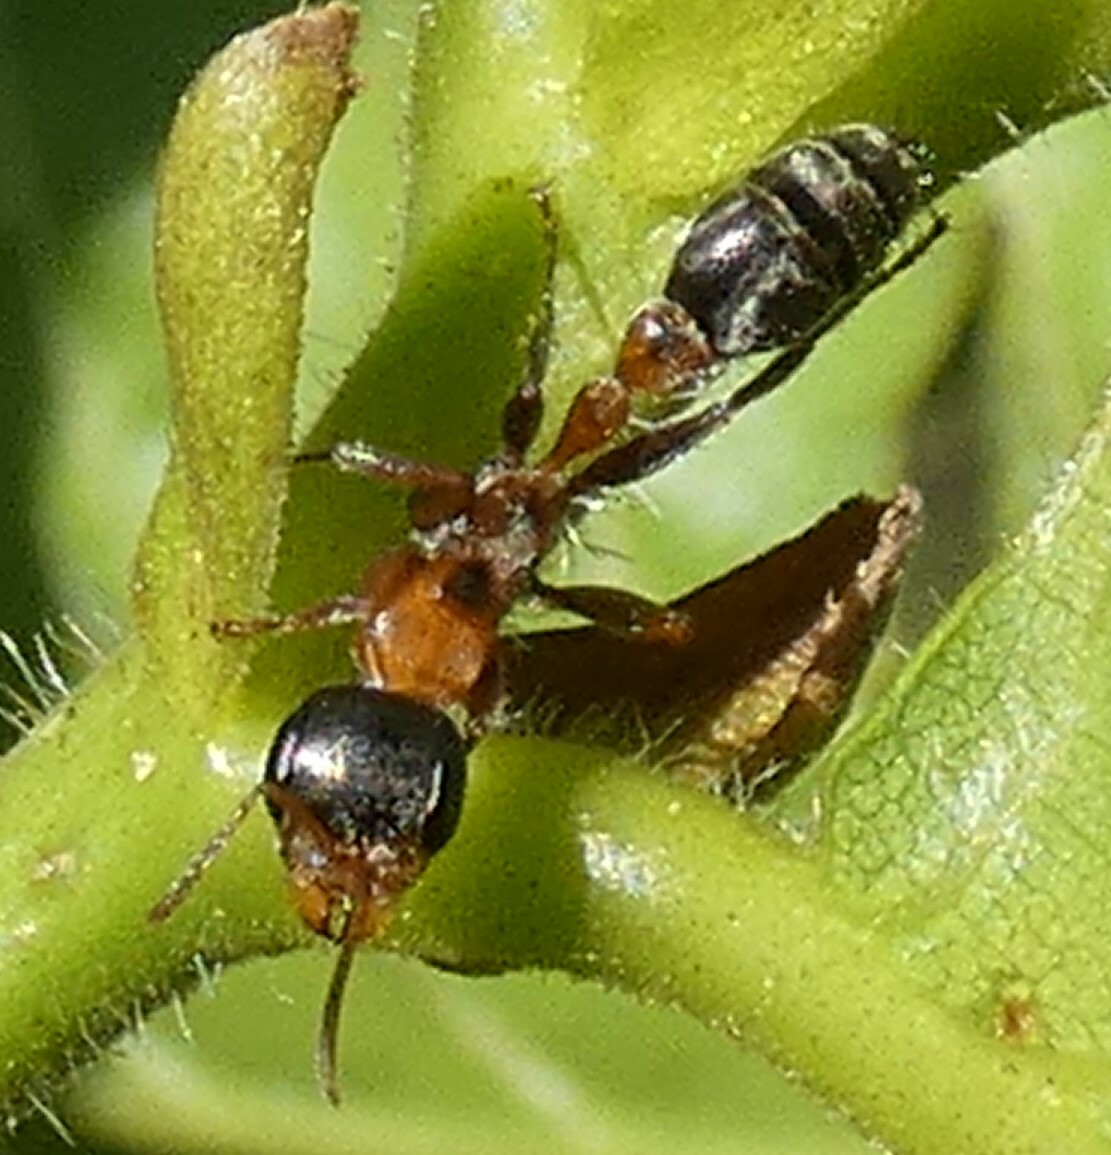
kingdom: Animalia
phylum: Arthropoda
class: Insecta
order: Hymenoptera
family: Formicidae
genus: Pseudomyrmex
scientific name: Pseudomyrmex gracilis
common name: Graceful twig ant
